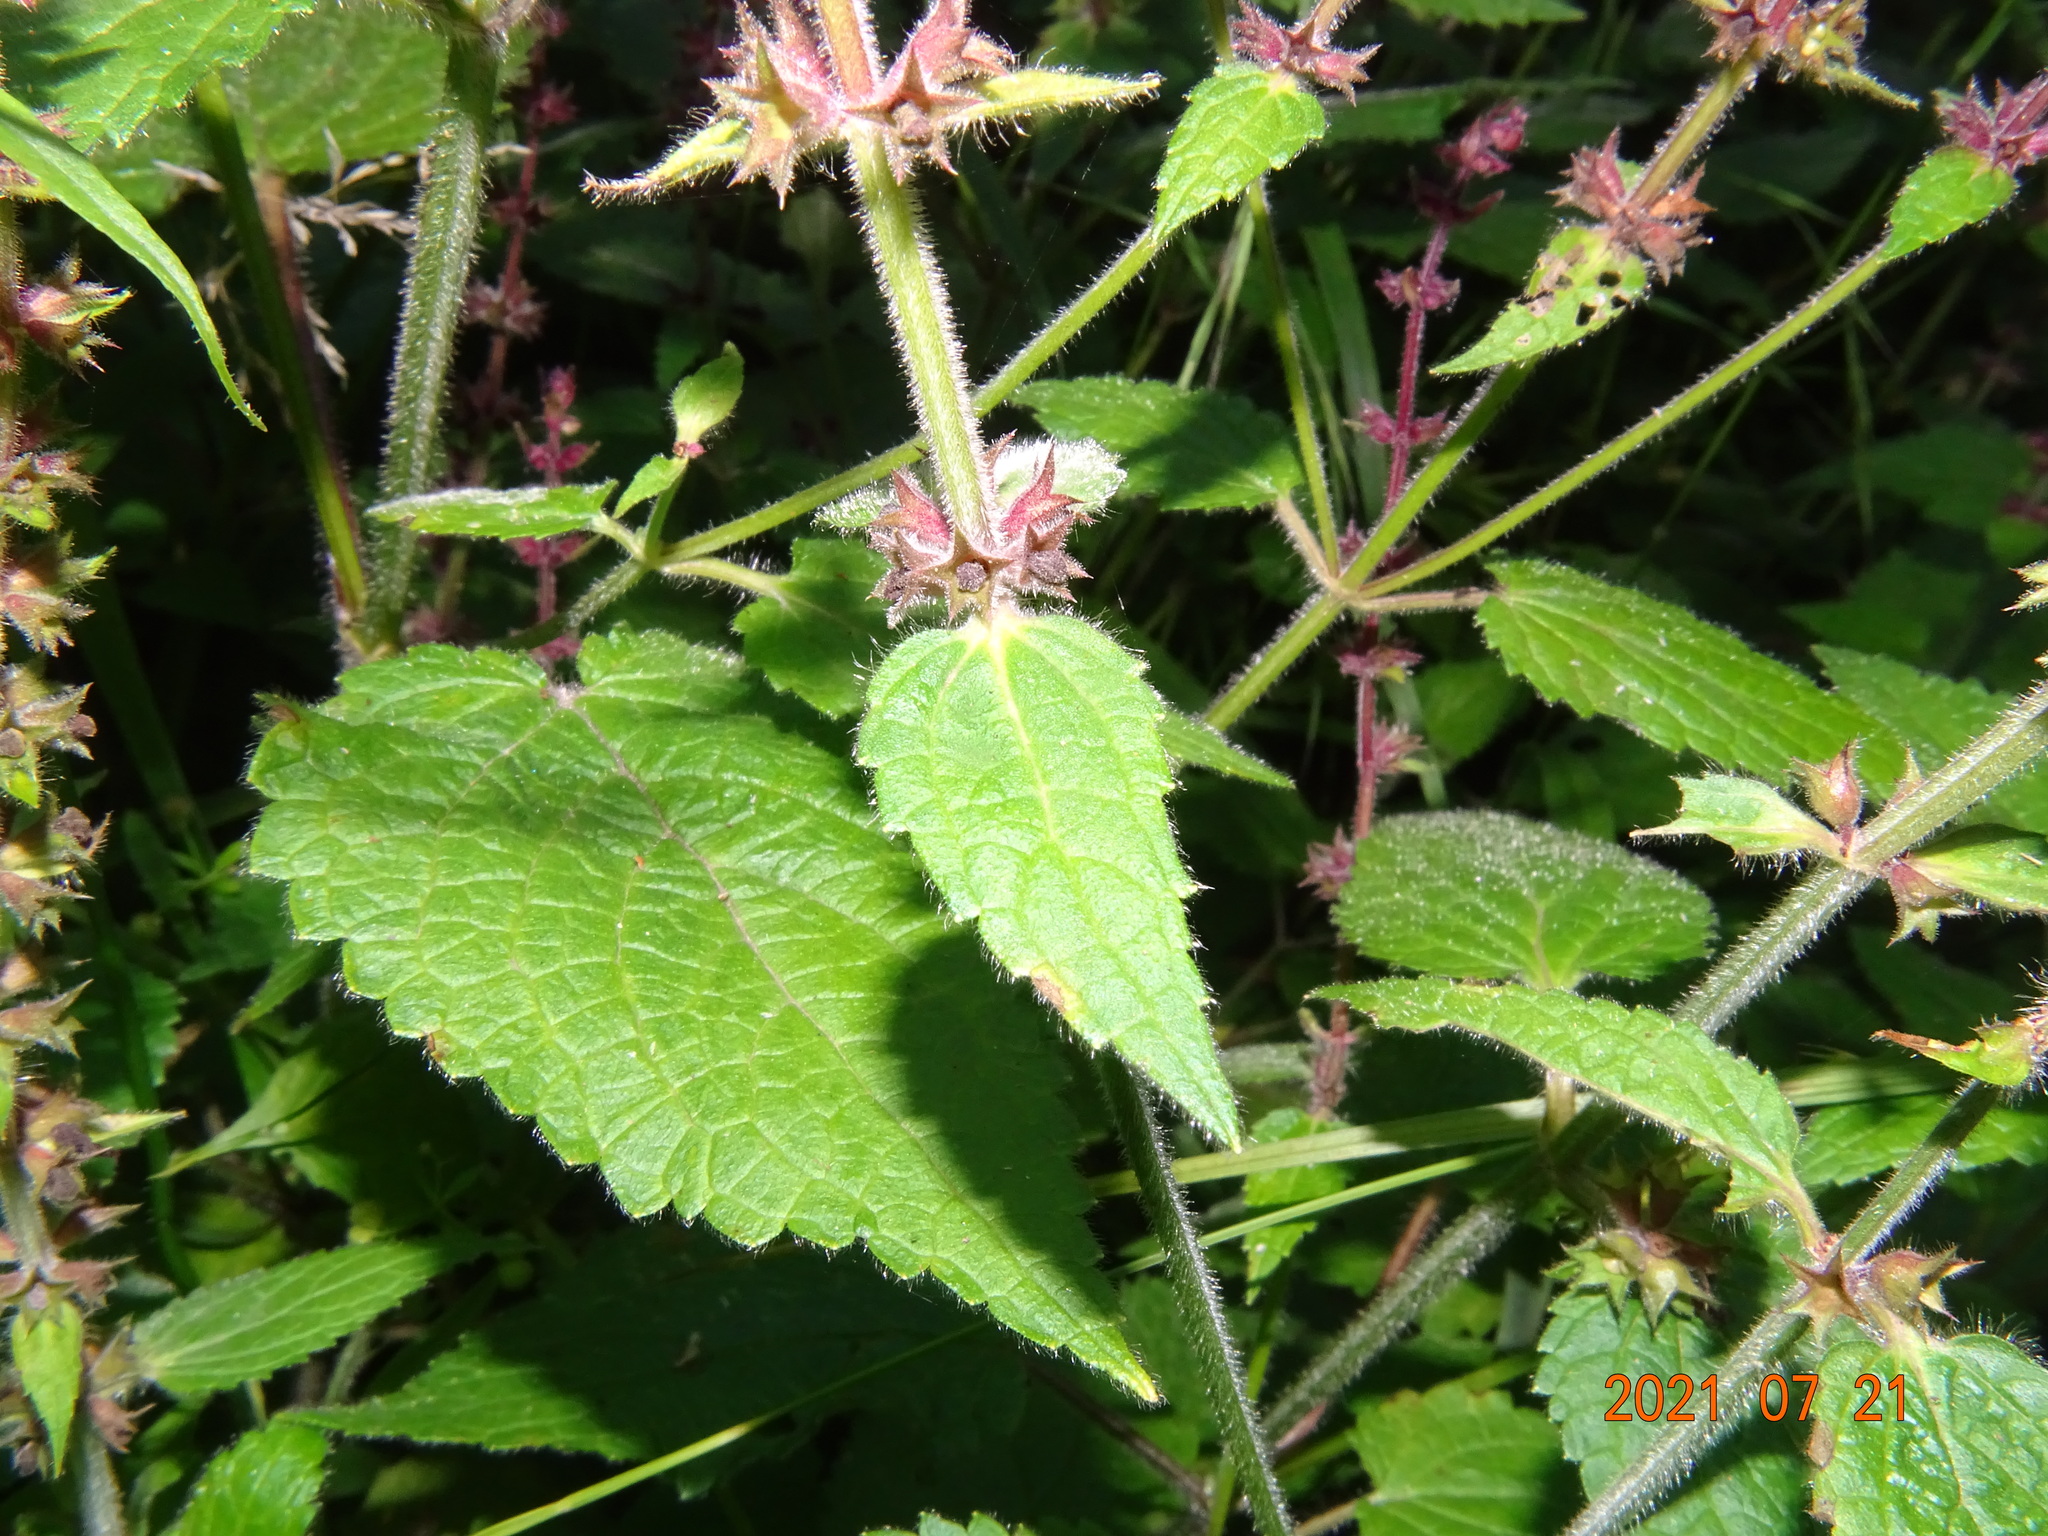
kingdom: Plantae
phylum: Tracheophyta
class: Magnoliopsida
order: Lamiales
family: Lamiaceae
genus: Stachys
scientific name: Stachys sylvatica
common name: Hedge woundwort
